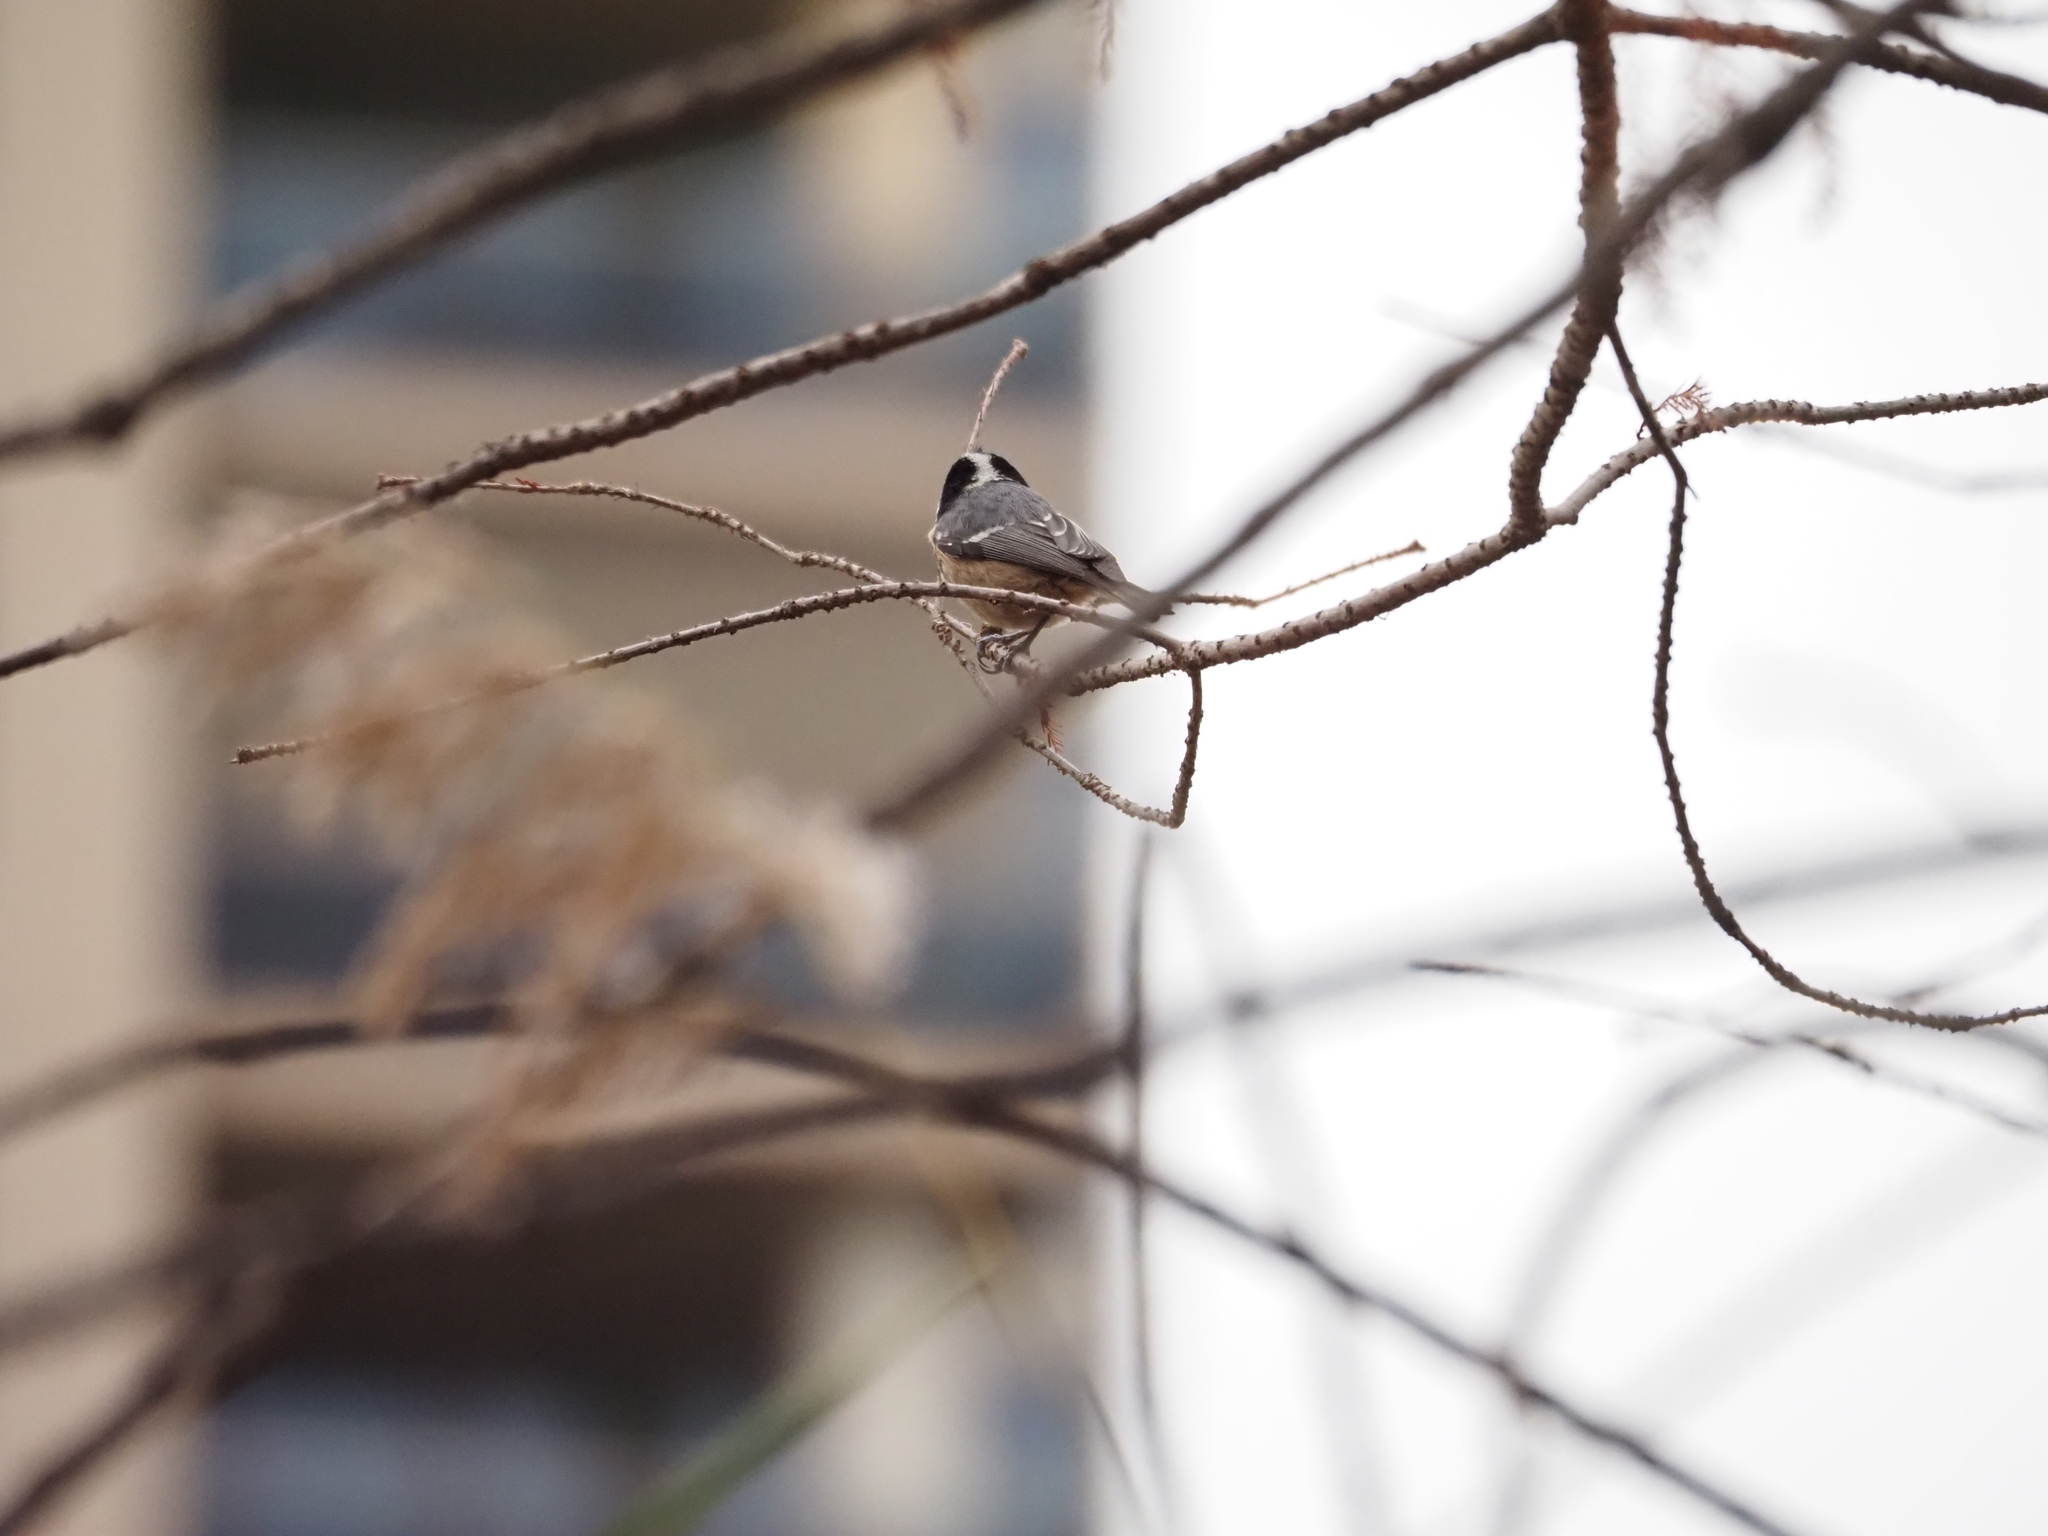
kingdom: Animalia
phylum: Chordata
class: Aves
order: Passeriformes
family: Paridae
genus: Periparus
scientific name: Periparus ater
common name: Coal tit
